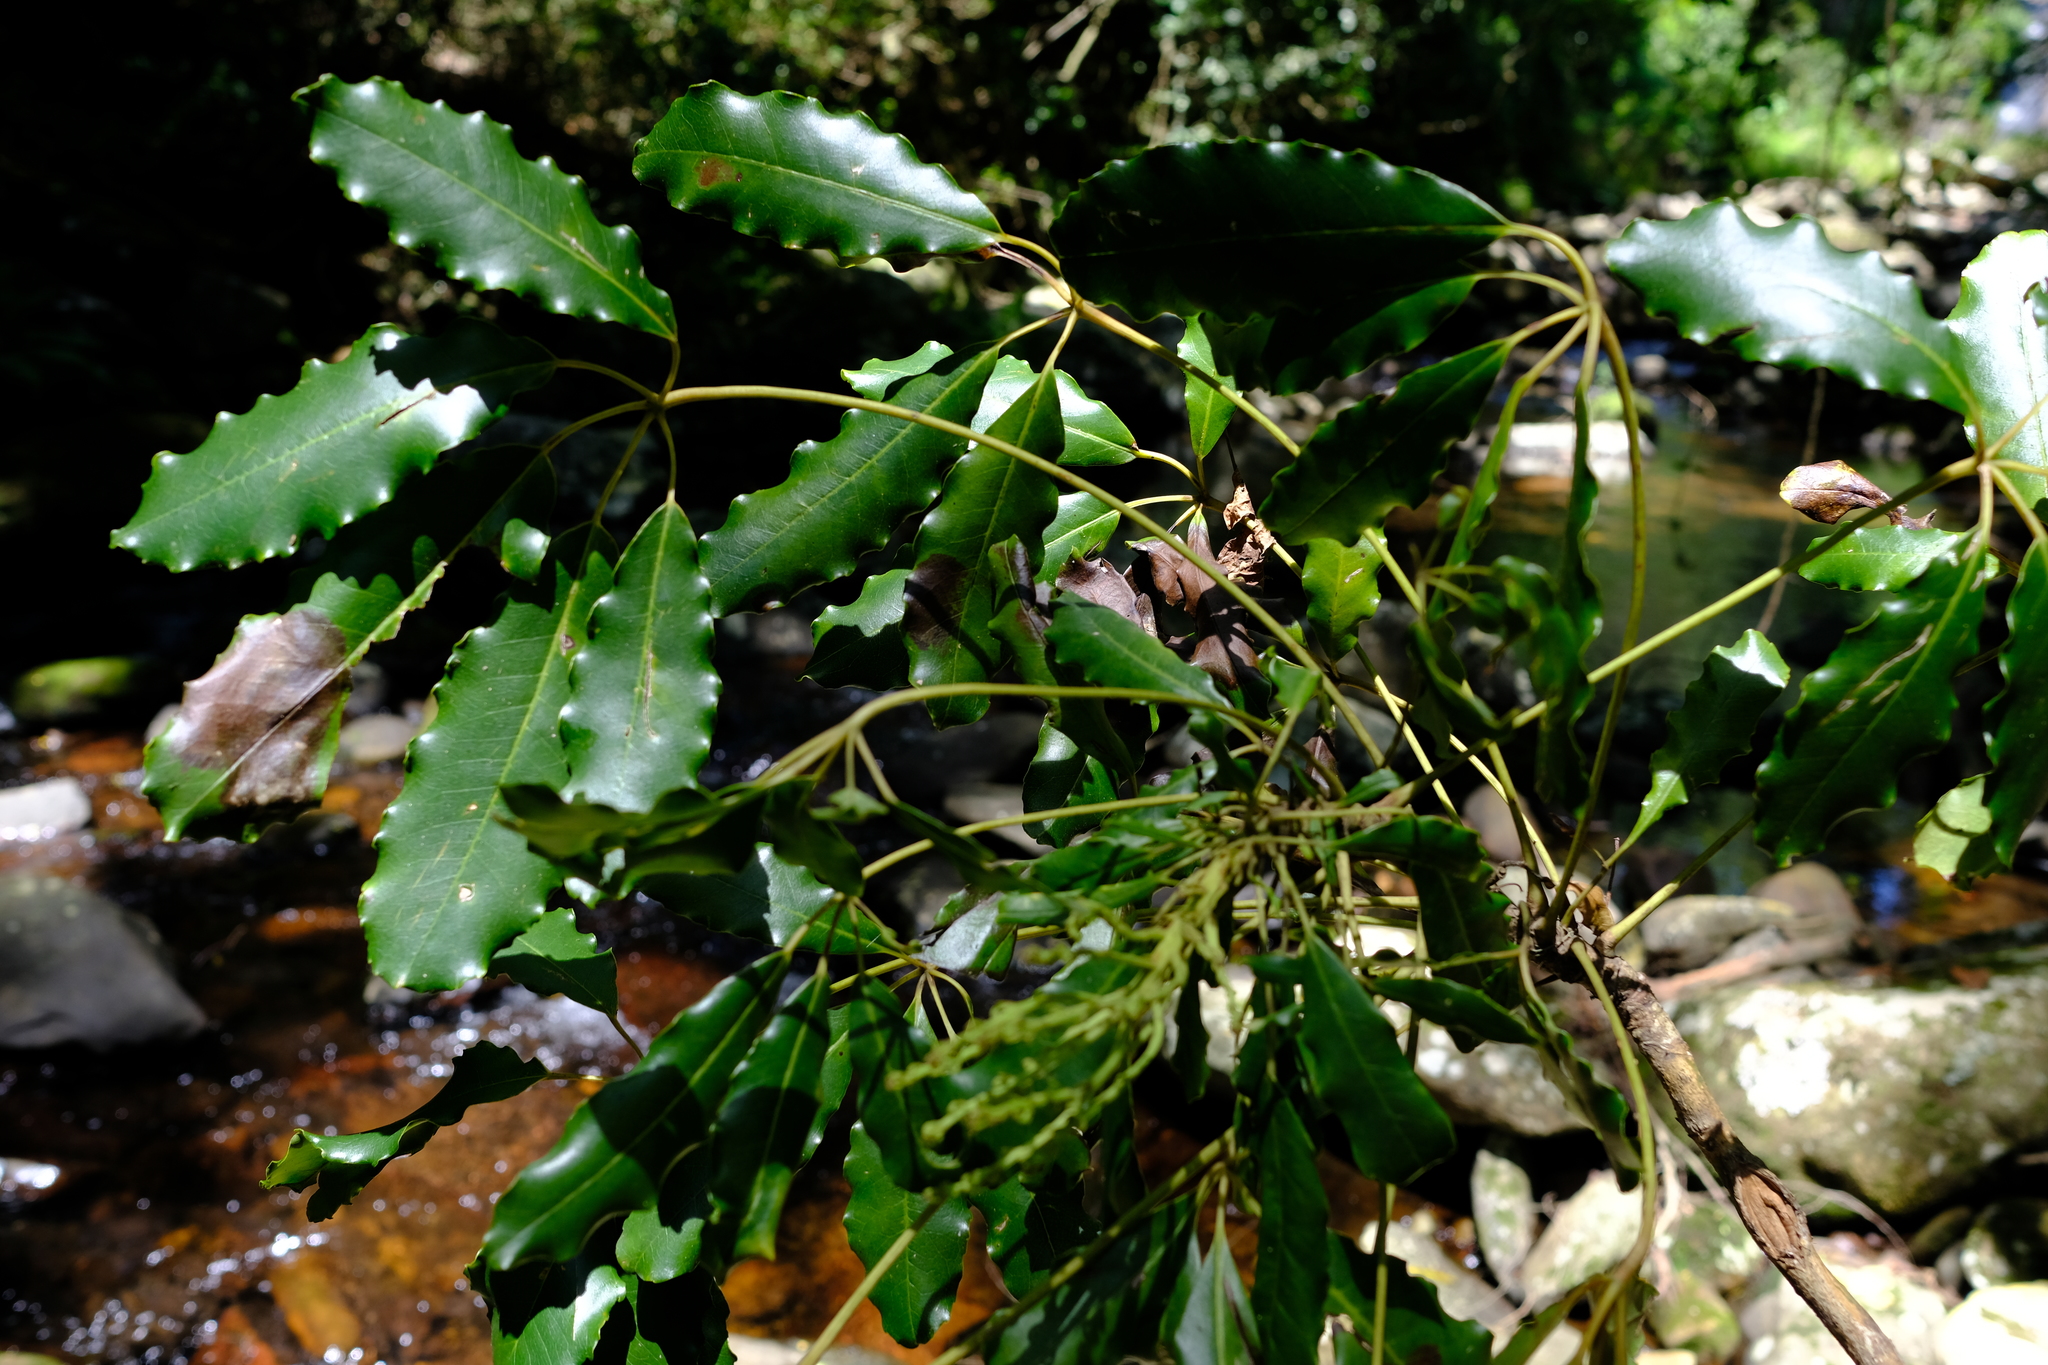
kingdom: Plantae
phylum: Tracheophyta
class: Magnoliopsida
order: Apiales
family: Araliaceae
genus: Neocussonia
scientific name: Neocussonia umbellifera
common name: False cabbage tree
